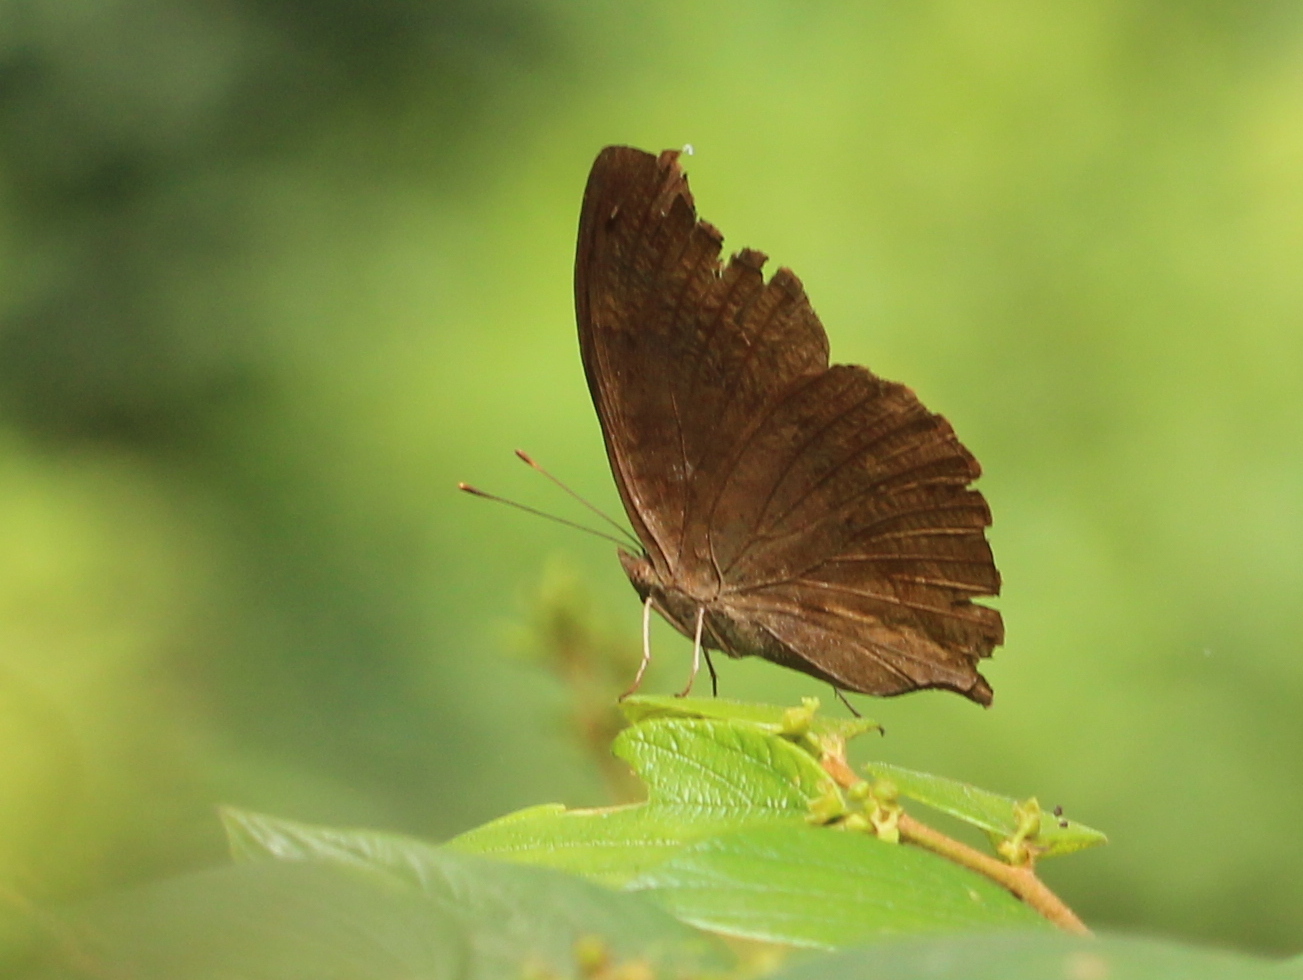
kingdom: Animalia
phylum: Arthropoda
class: Insecta
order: Lepidoptera
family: Nymphalidae
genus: Junonia
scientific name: Junonia iphita
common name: Chocolate pansy
